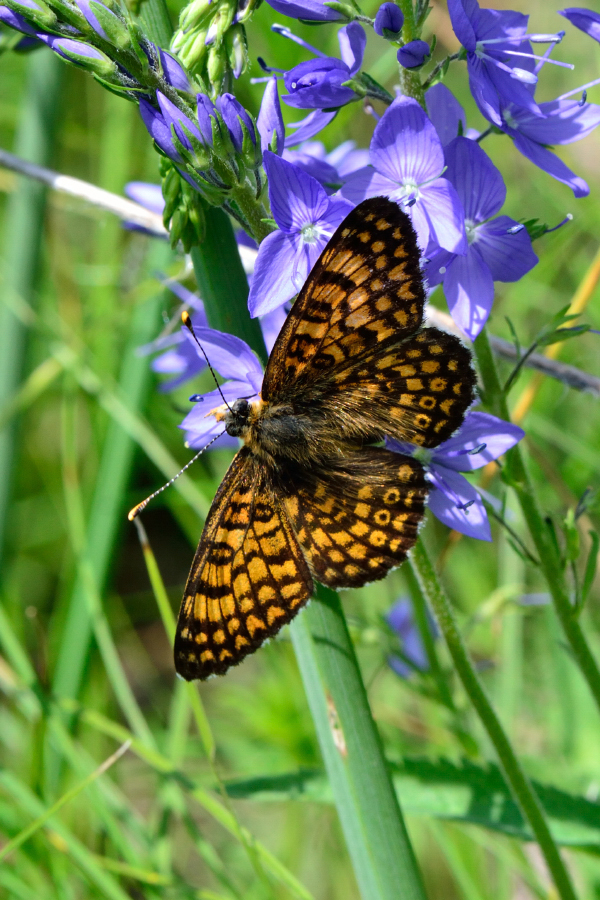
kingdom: Animalia
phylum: Arthropoda
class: Insecta
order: Lepidoptera
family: Nymphalidae
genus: Melitaea
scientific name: Melitaea cinxia
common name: Glanville fritillary
